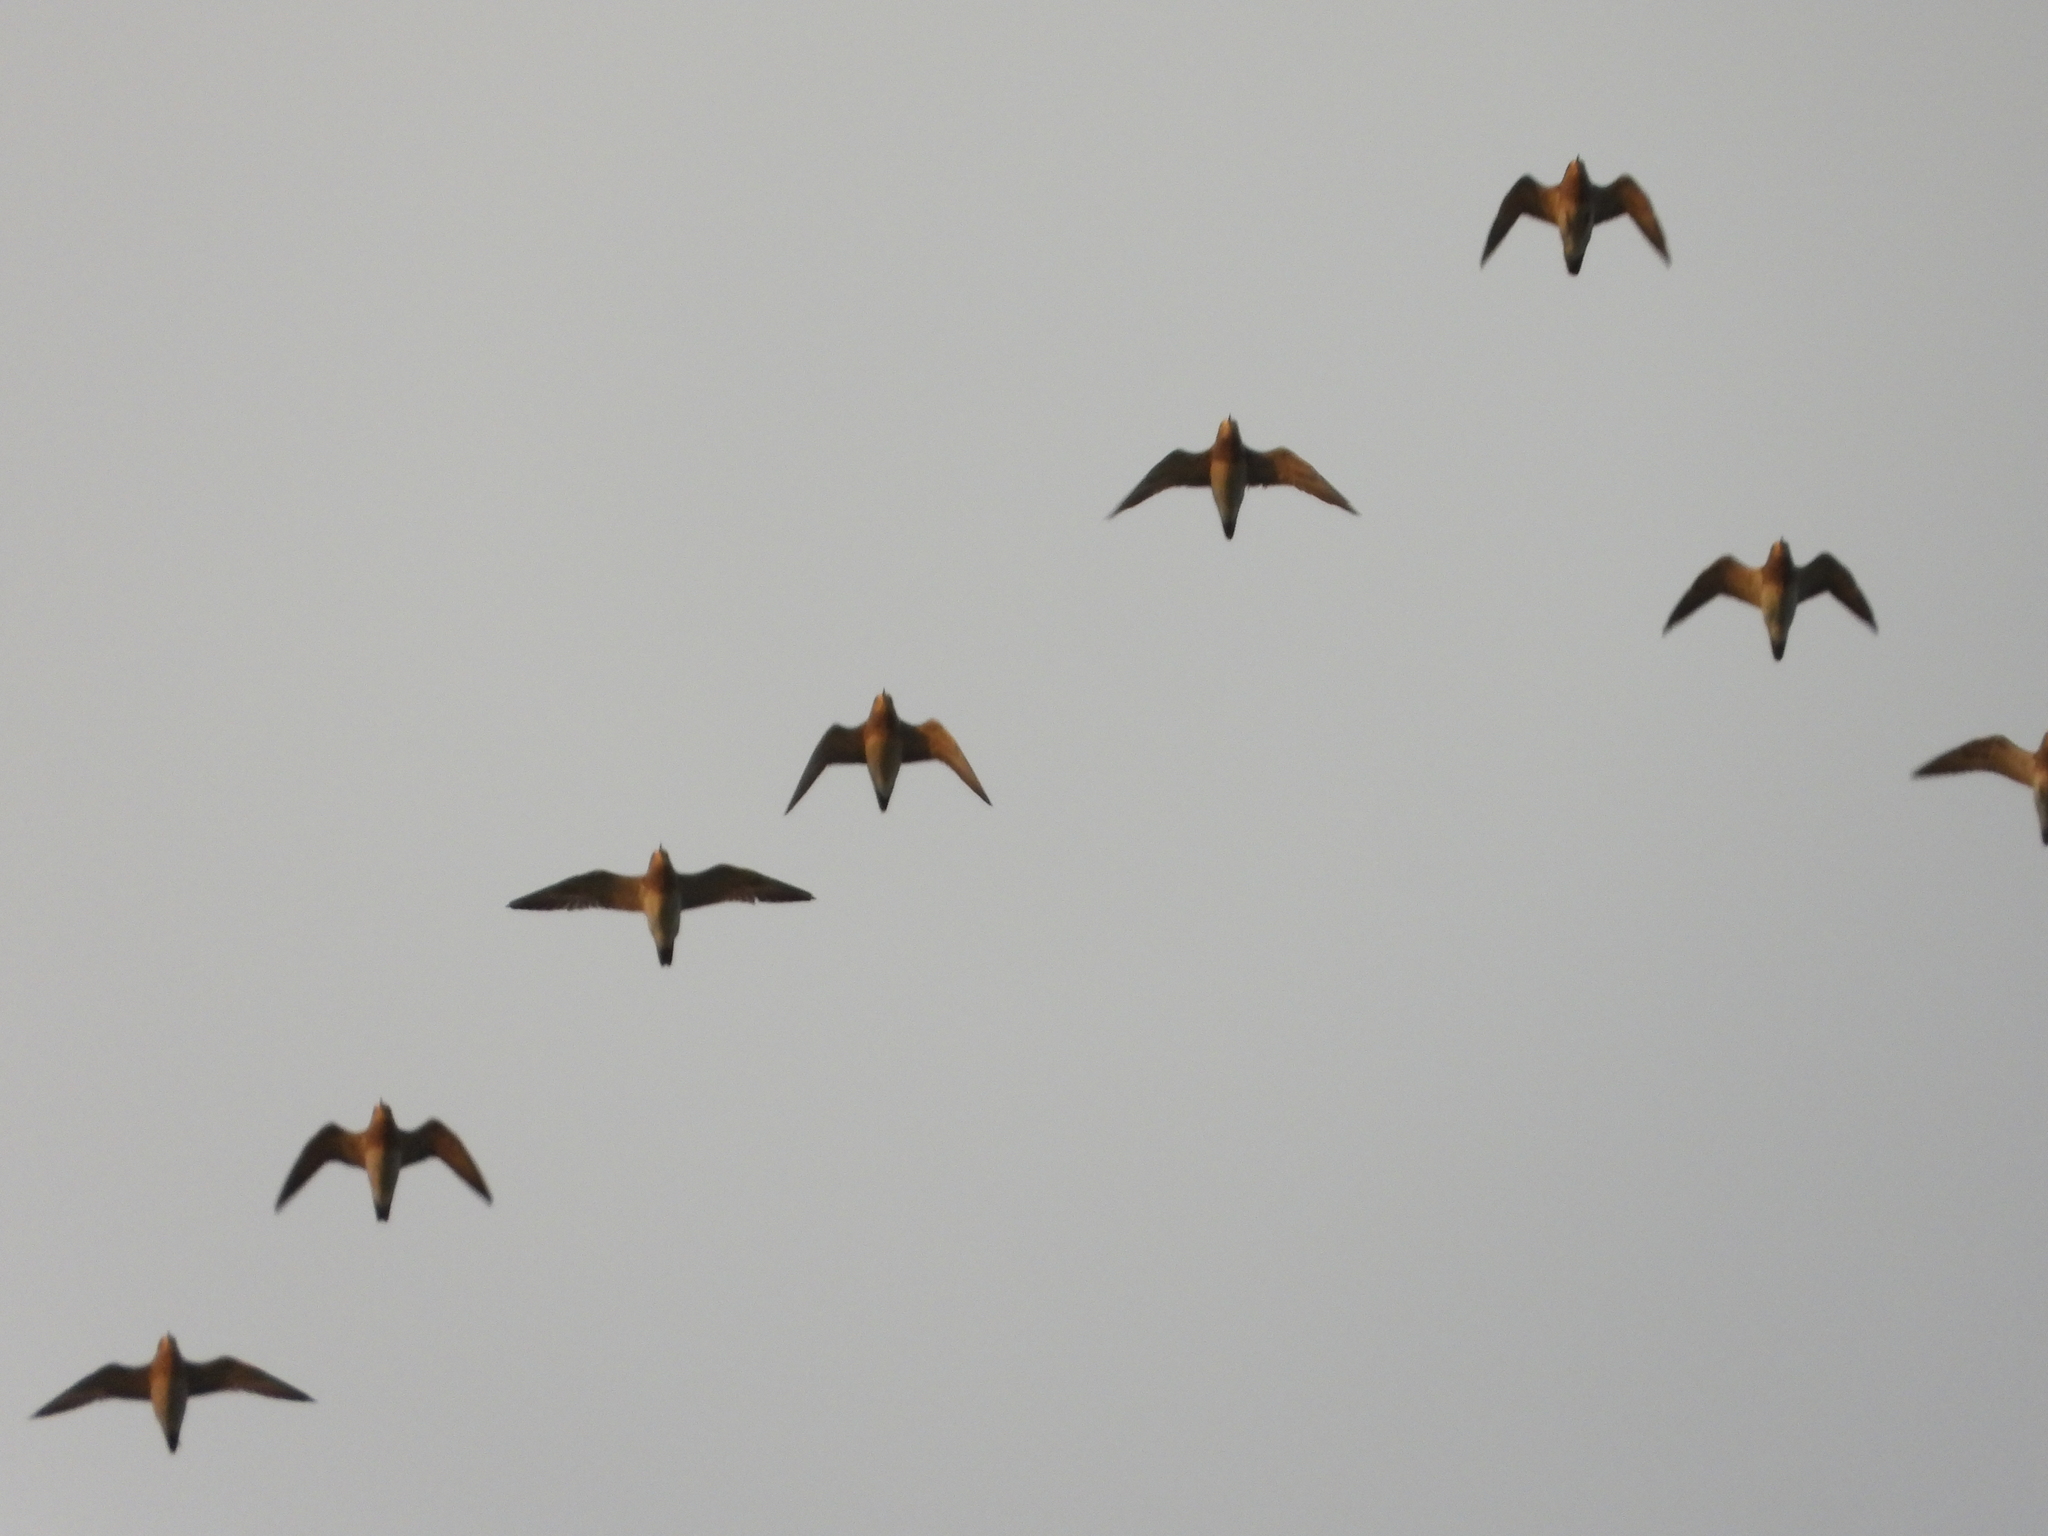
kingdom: Animalia
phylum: Chordata
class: Aves
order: Charadriiformes
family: Charadriidae
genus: Pluvialis
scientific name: Pluvialis apricaria
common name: European golden plover
